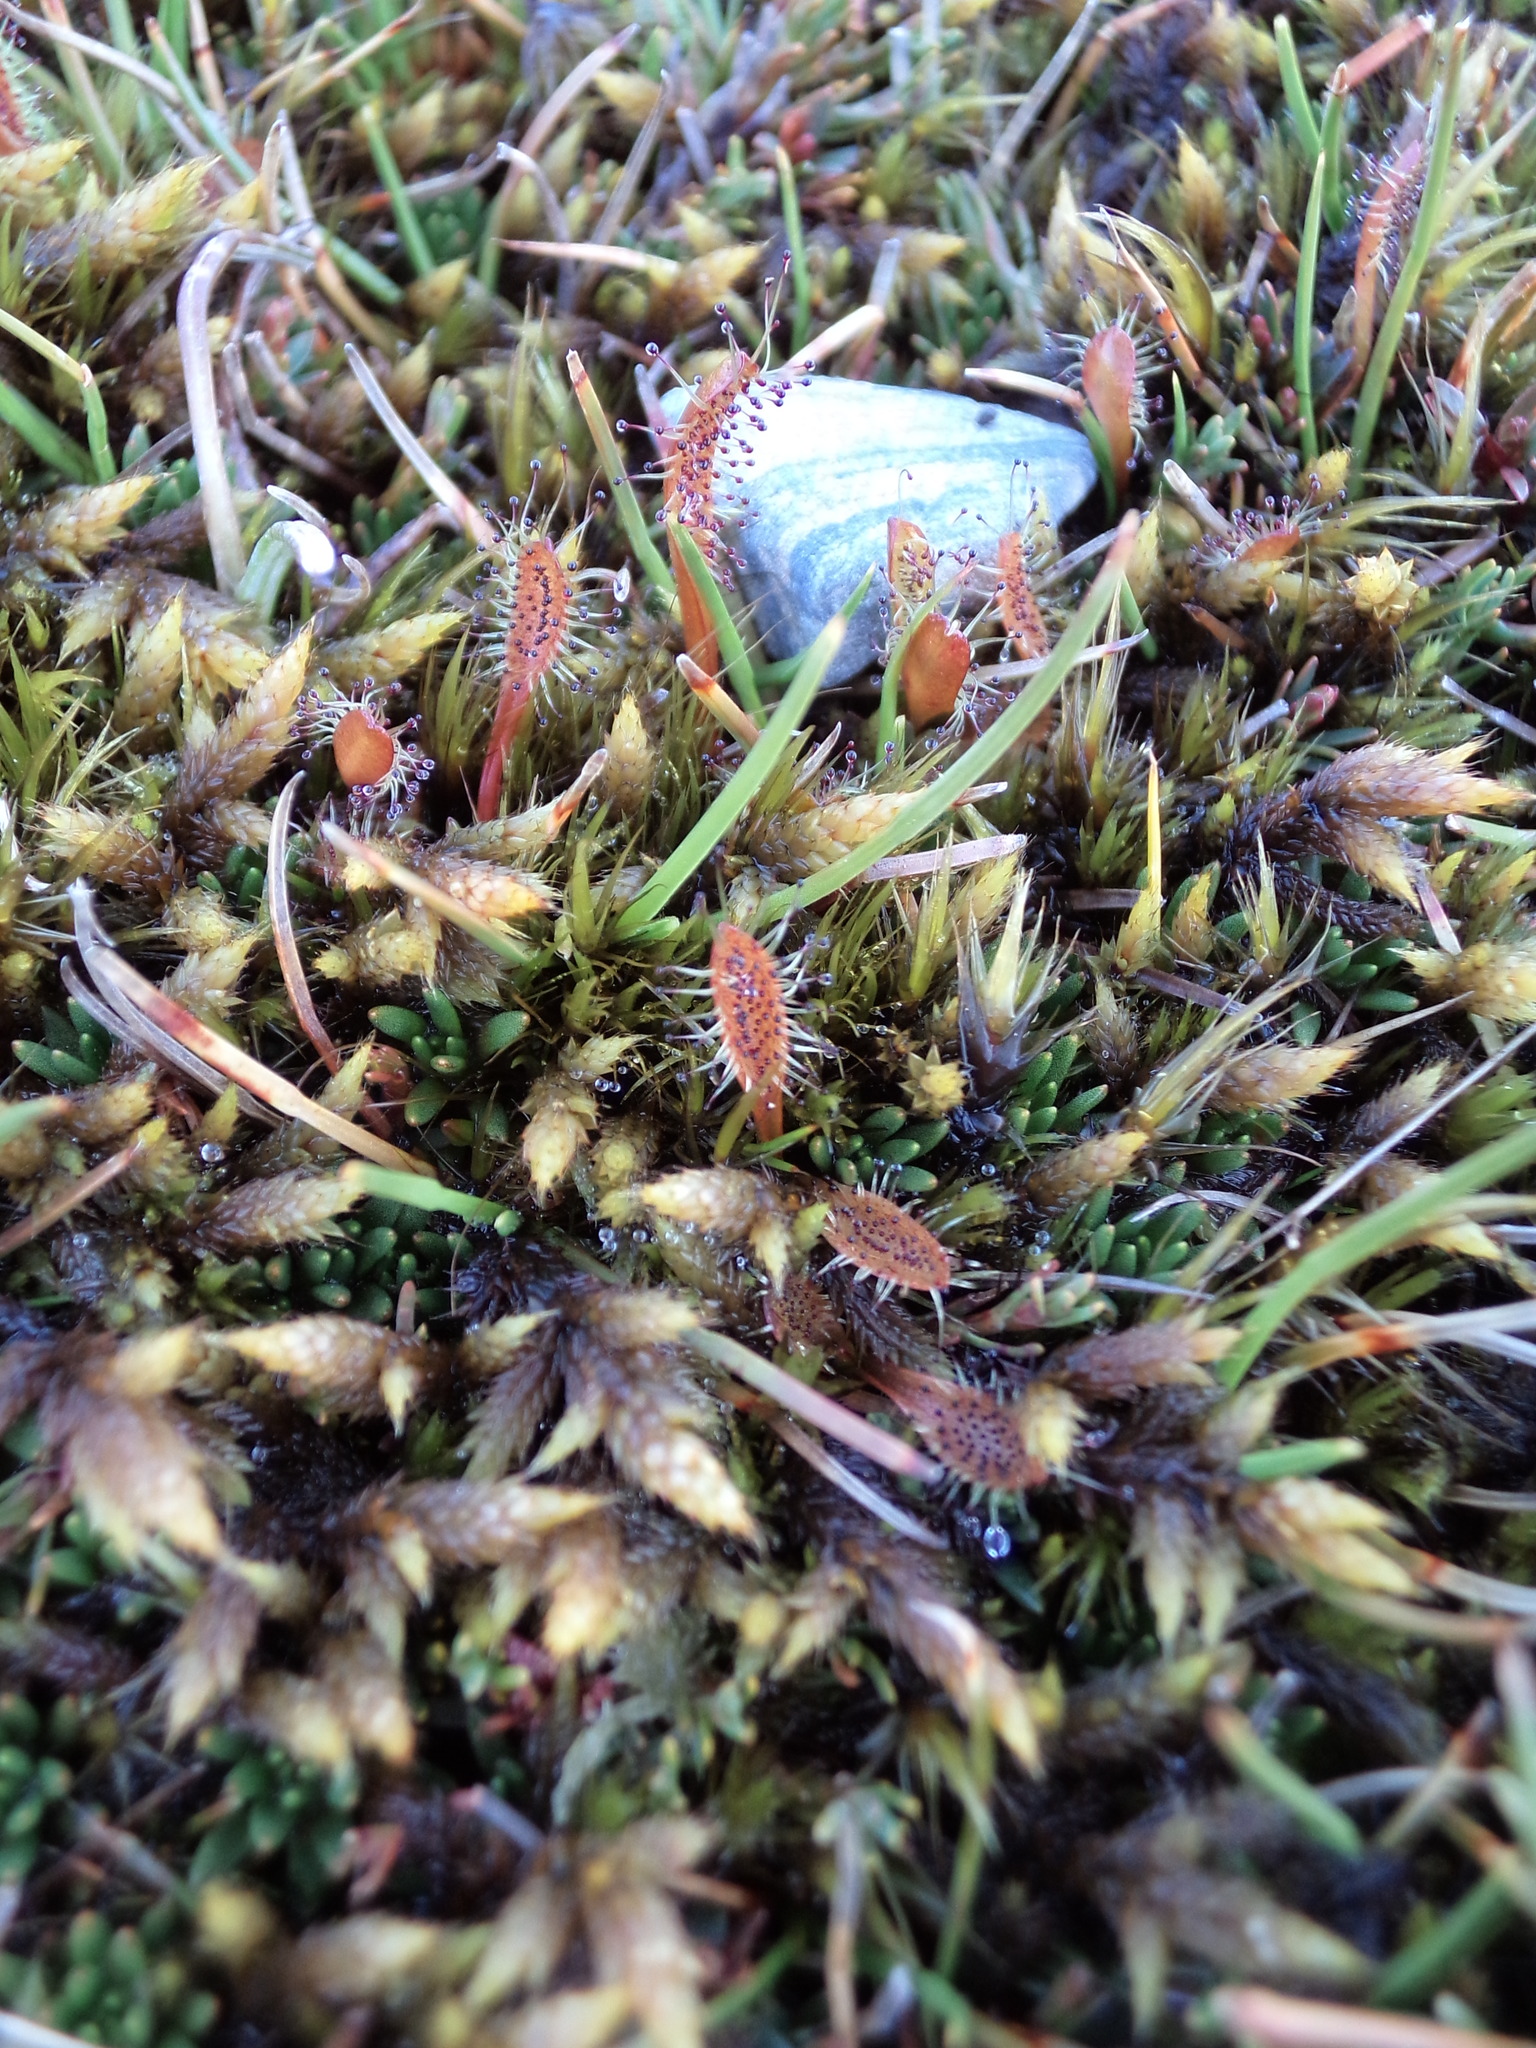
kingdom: Plantae
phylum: Tracheophyta
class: Magnoliopsida
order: Caryophyllales
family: Droseraceae
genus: Drosera
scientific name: Drosera arcturi
